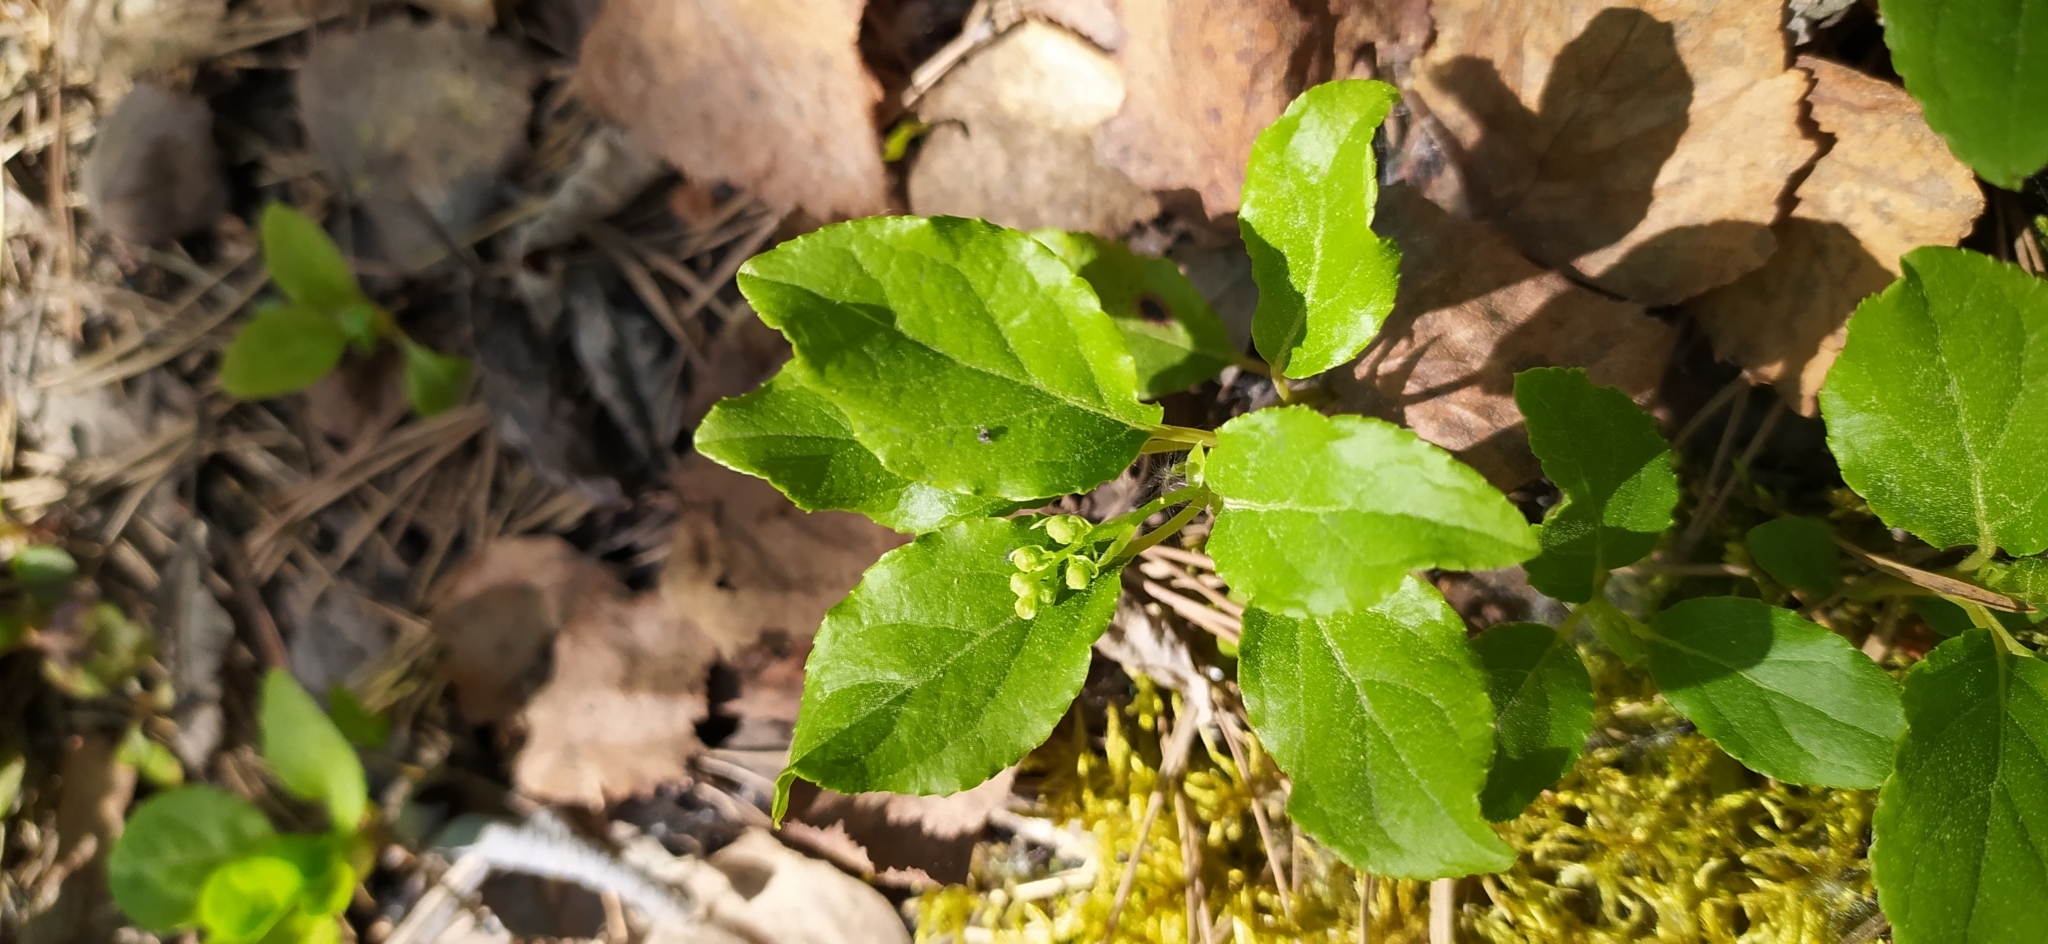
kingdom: Plantae
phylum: Tracheophyta
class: Magnoliopsida
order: Ericales
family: Ericaceae
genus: Orthilia
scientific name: Orthilia secunda
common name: One-sided orthilia
